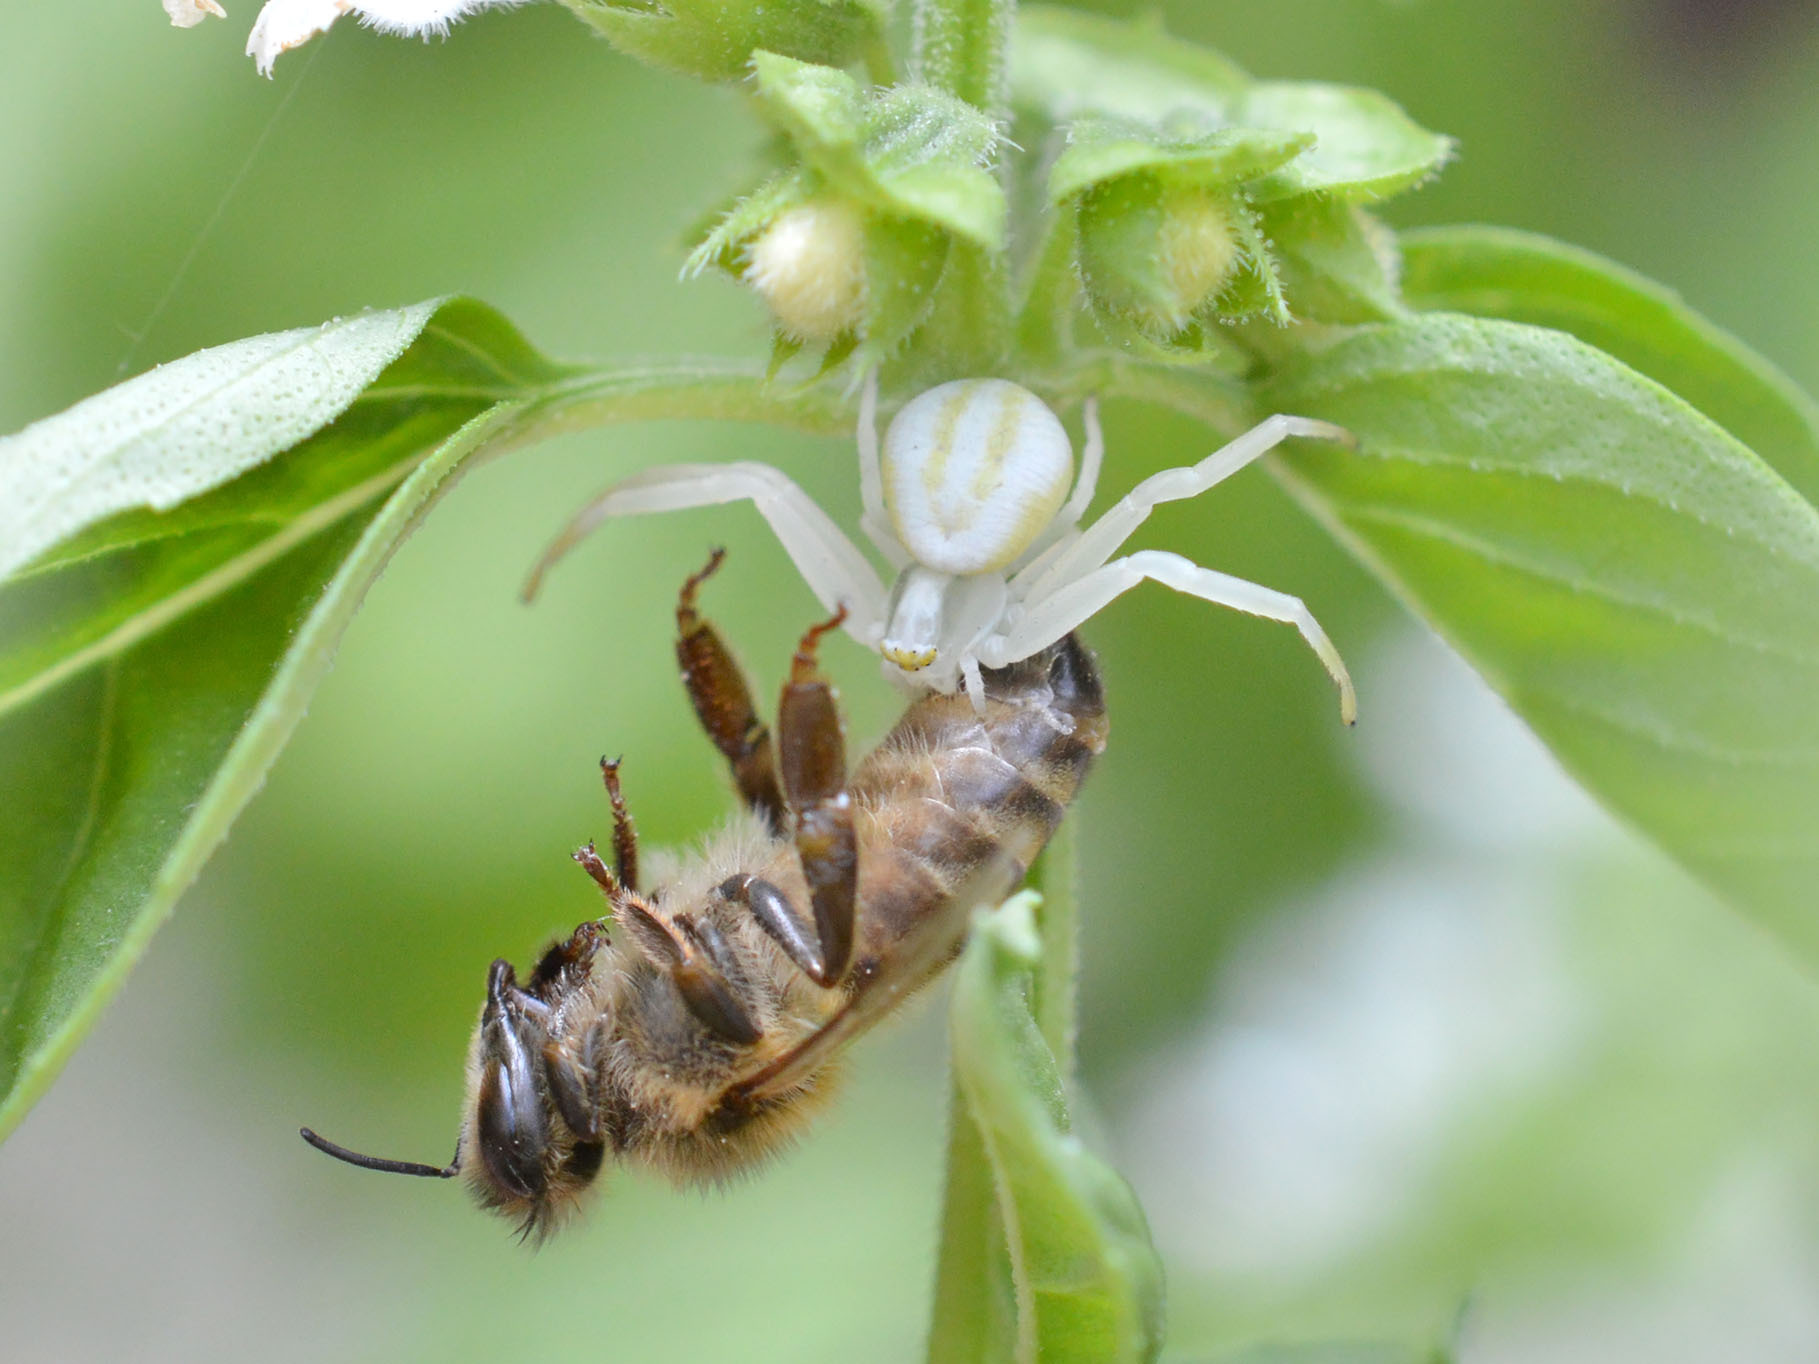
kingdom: Animalia
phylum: Arthropoda
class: Arachnida
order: Araneae
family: Thomisidae
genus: Misumena
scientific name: Misumena vatia
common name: Goldenrod crab spider
